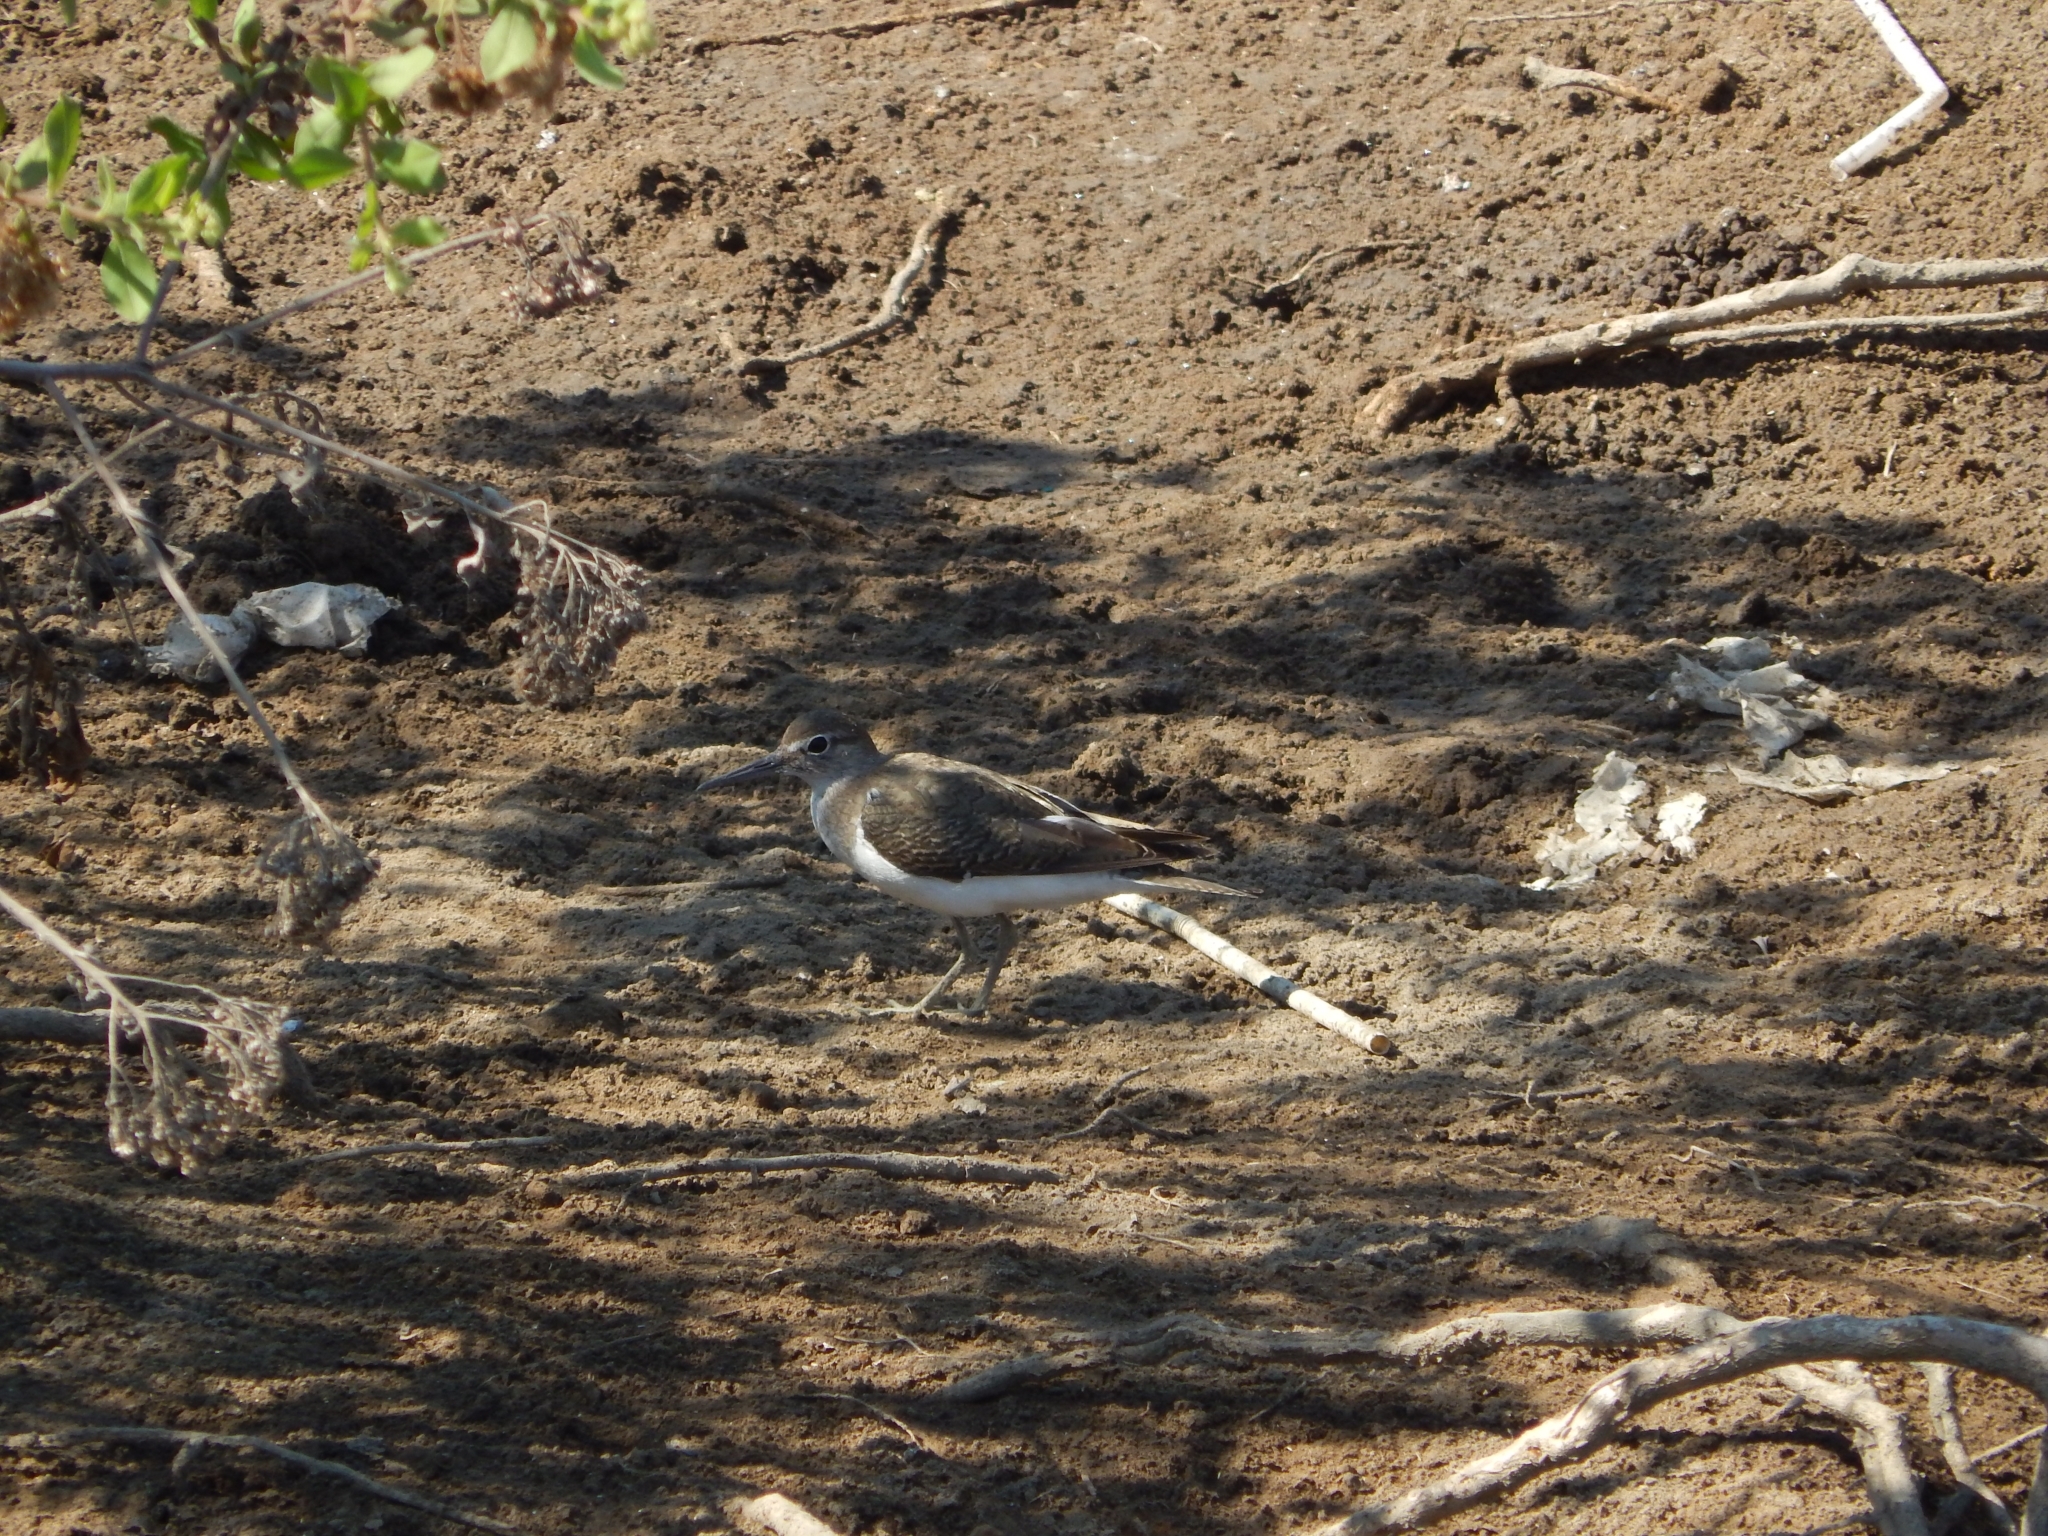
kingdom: Animalia
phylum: Chordata
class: Aves
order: Charadriiformes
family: Scolopacidae
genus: Actitis
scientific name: Actitis hypoleucos
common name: Common sandpiper
